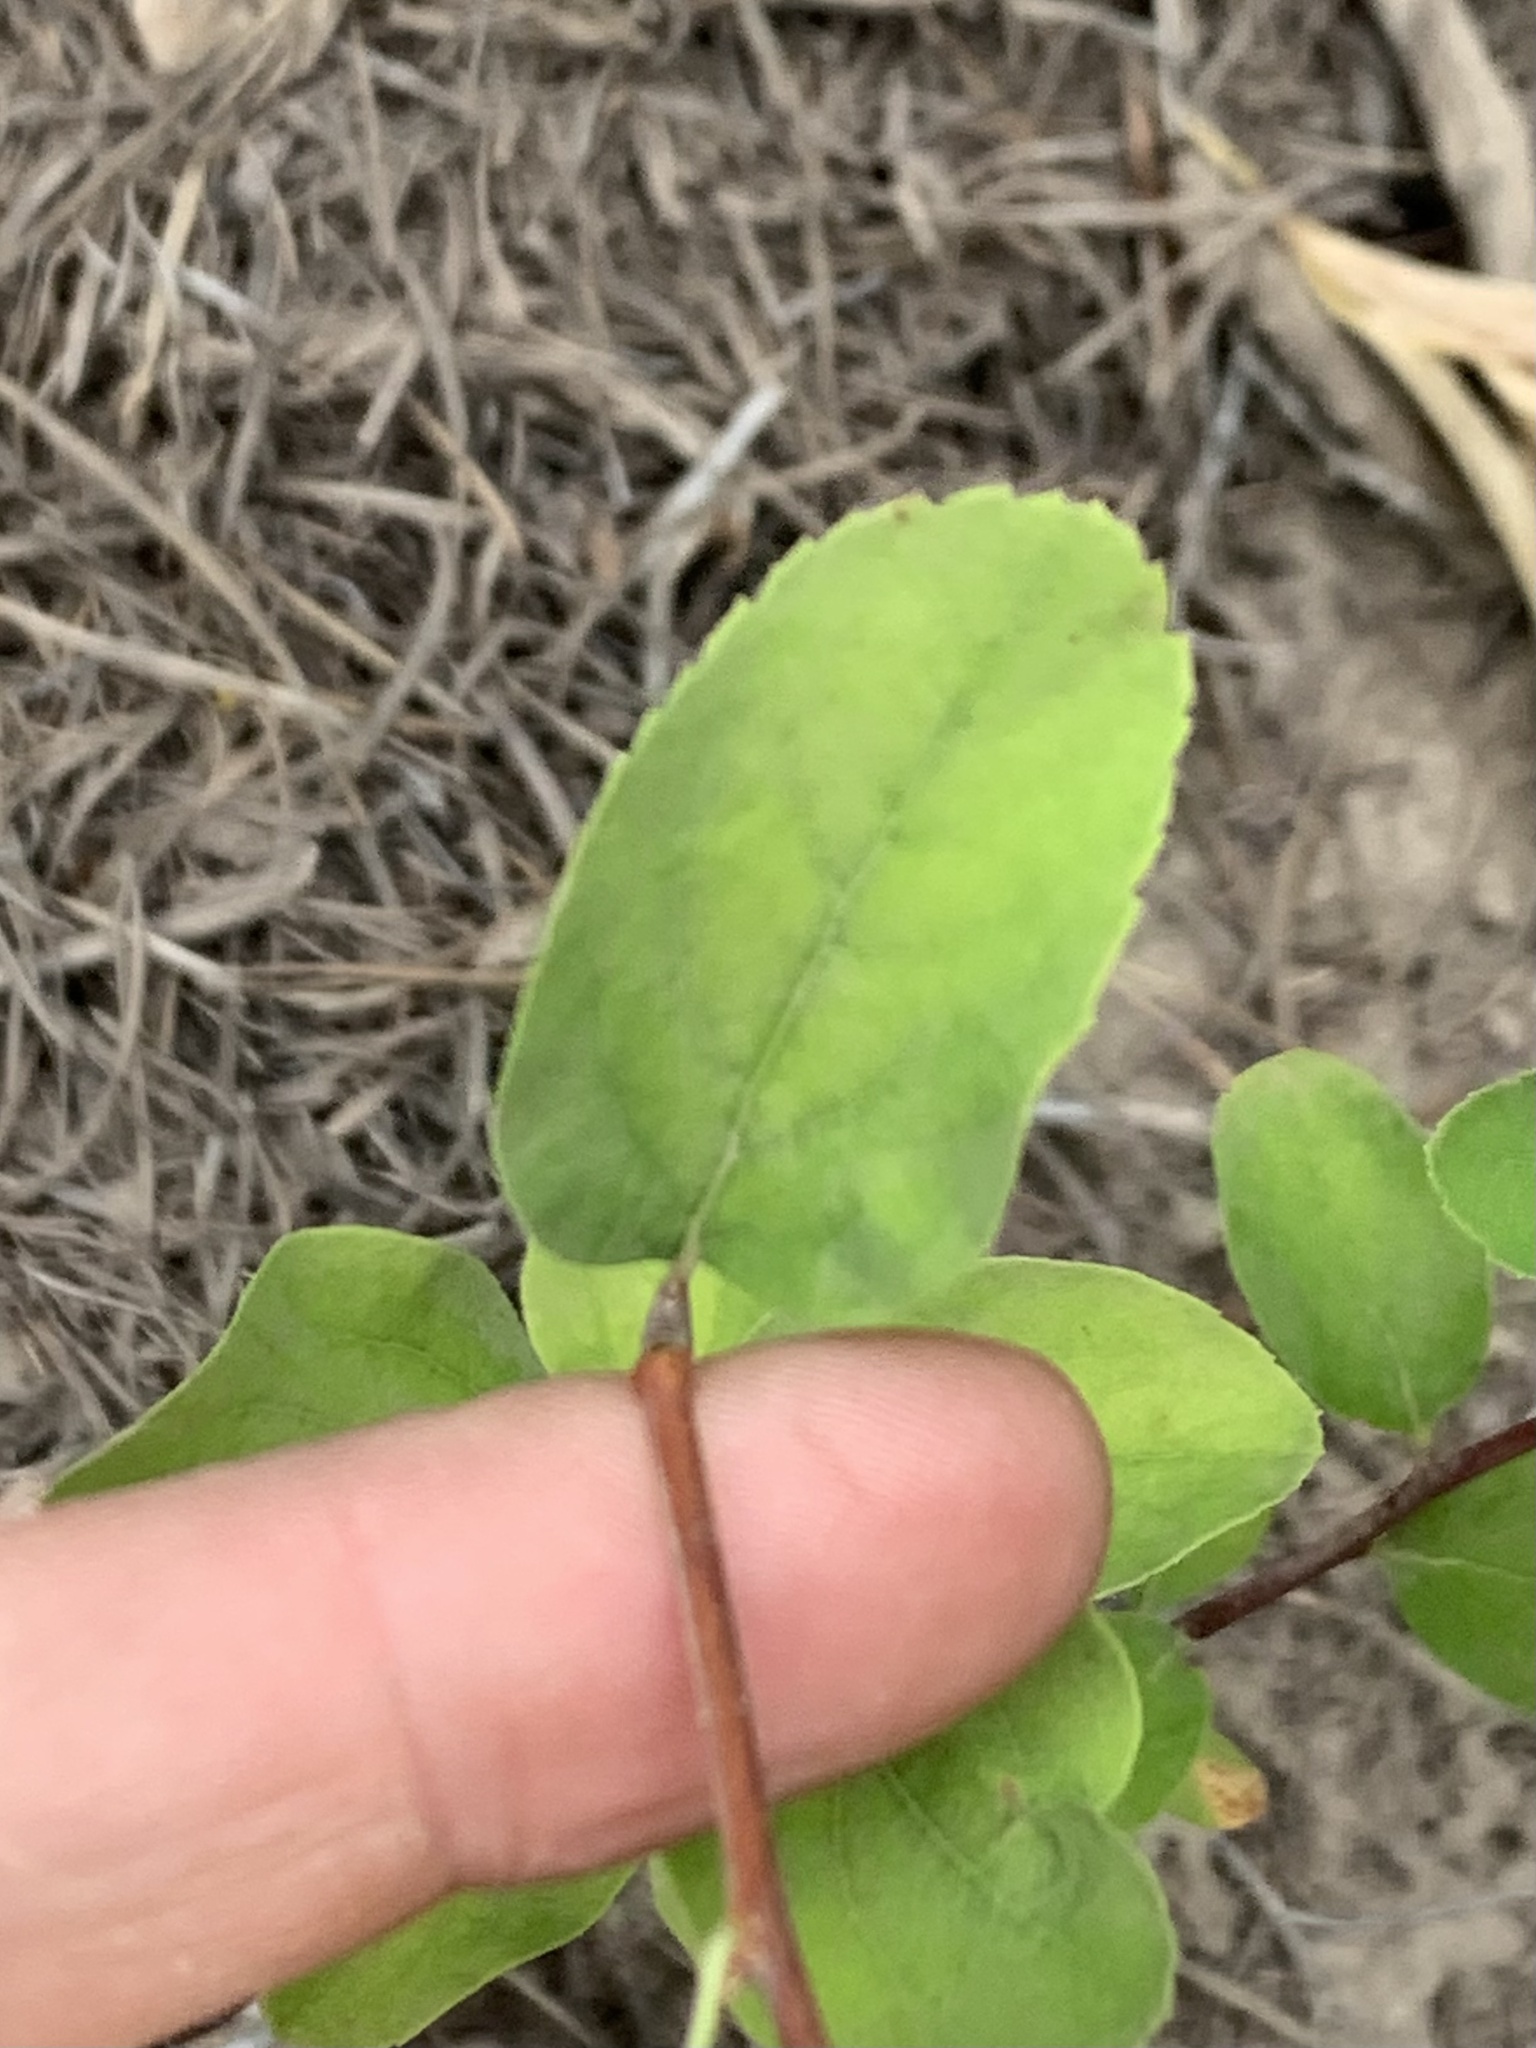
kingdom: Plantae
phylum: Tracheophyta
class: Magnoliopsida
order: Rosales
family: Rosaceae
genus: Spiraea
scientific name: Spiraea lucida
